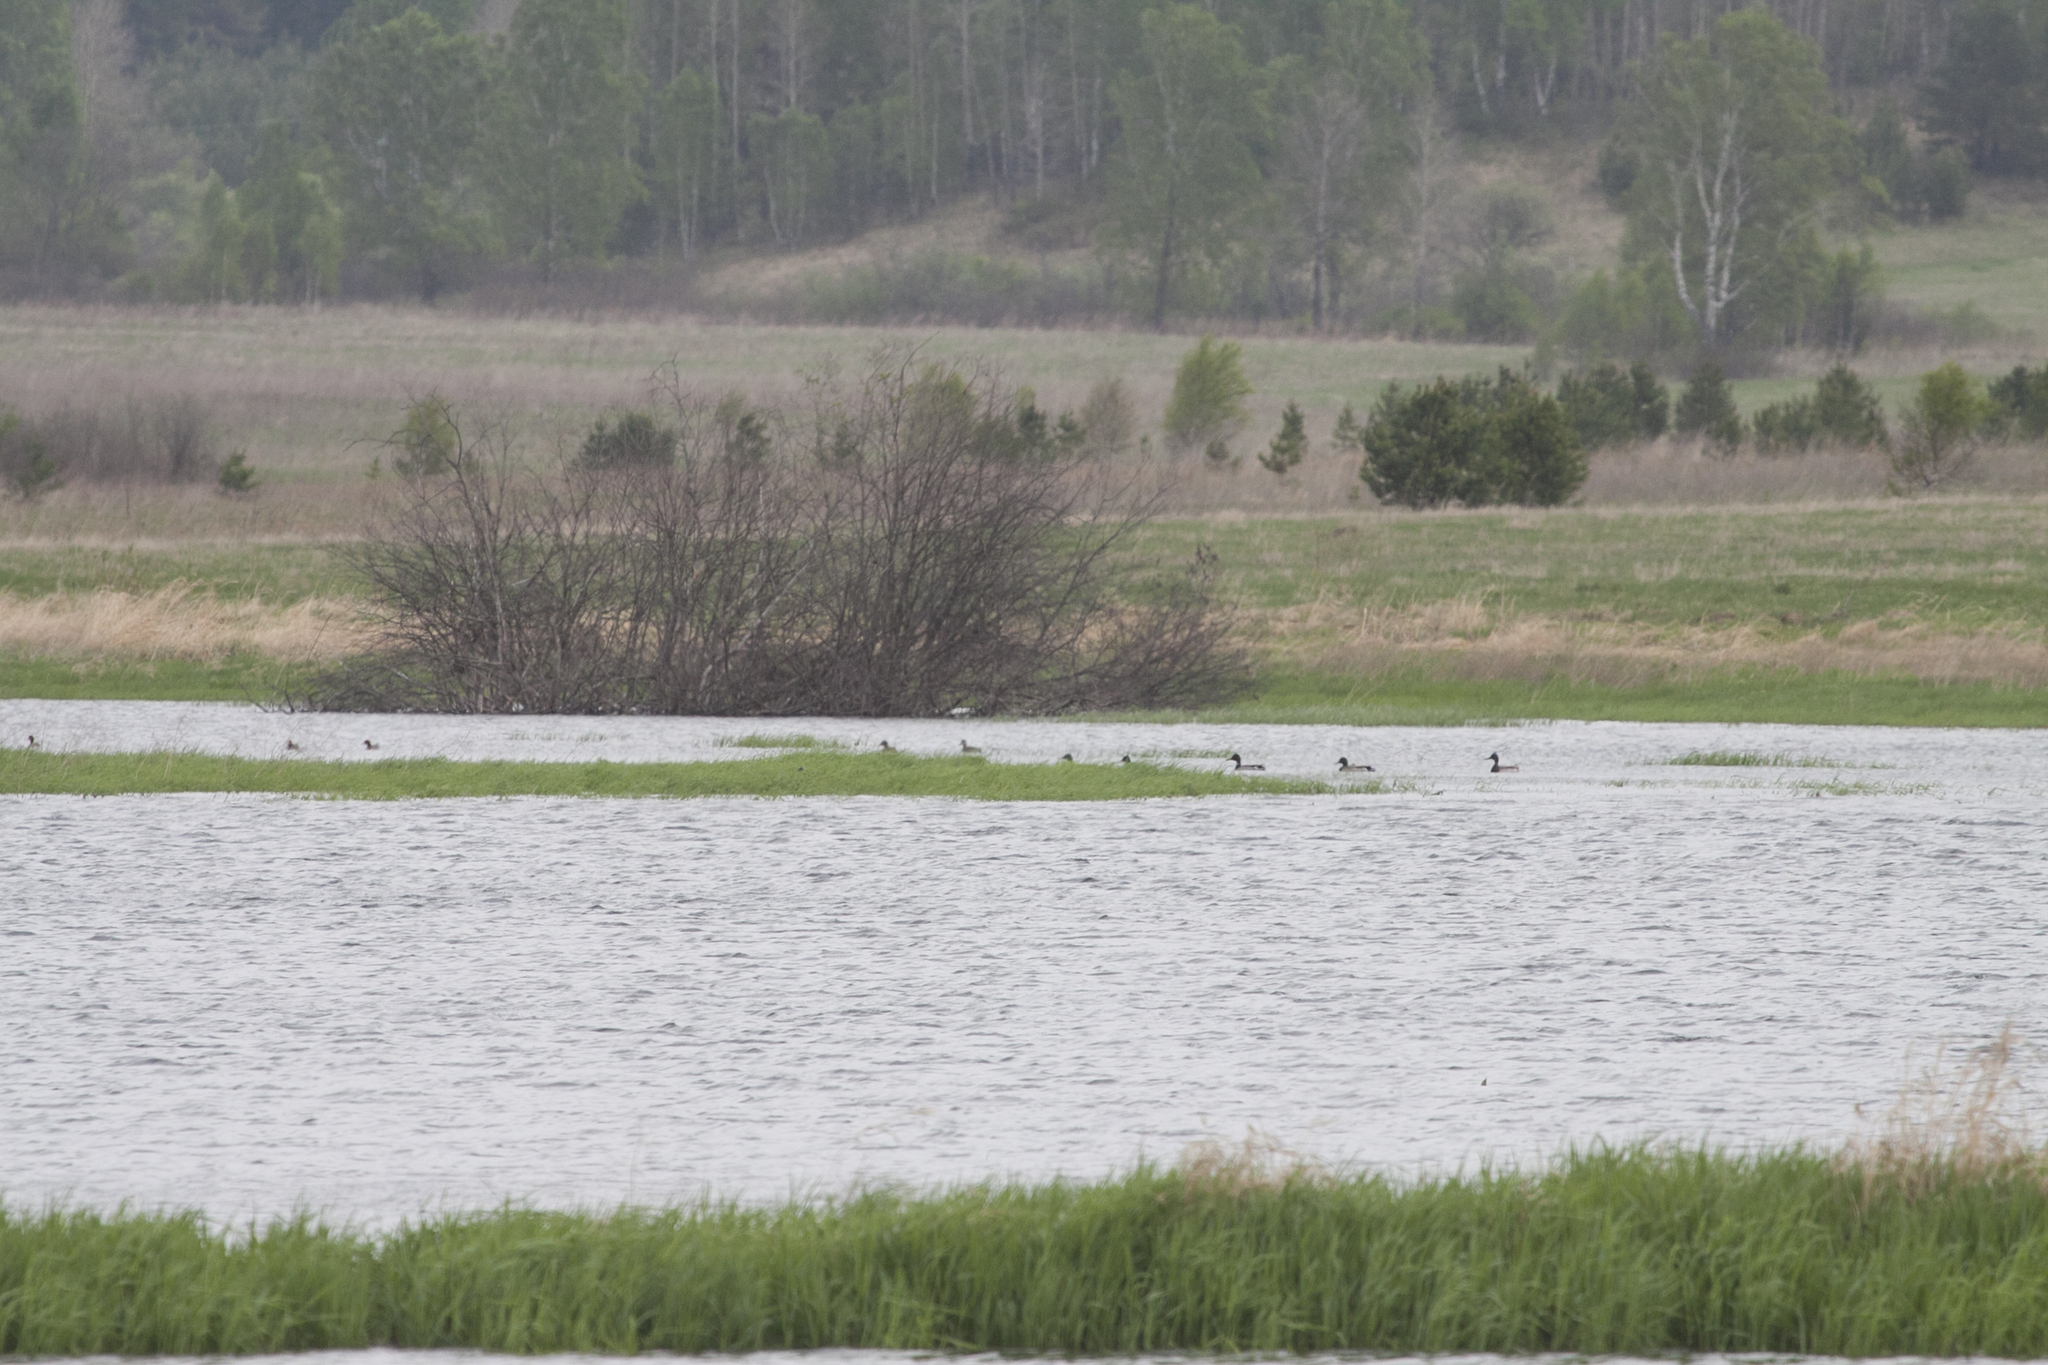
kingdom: Animalia
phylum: Chordata
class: Aves
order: Anseriformes
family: Anatidae
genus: Anas
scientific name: Anas platyrhynchos
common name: Mallard
